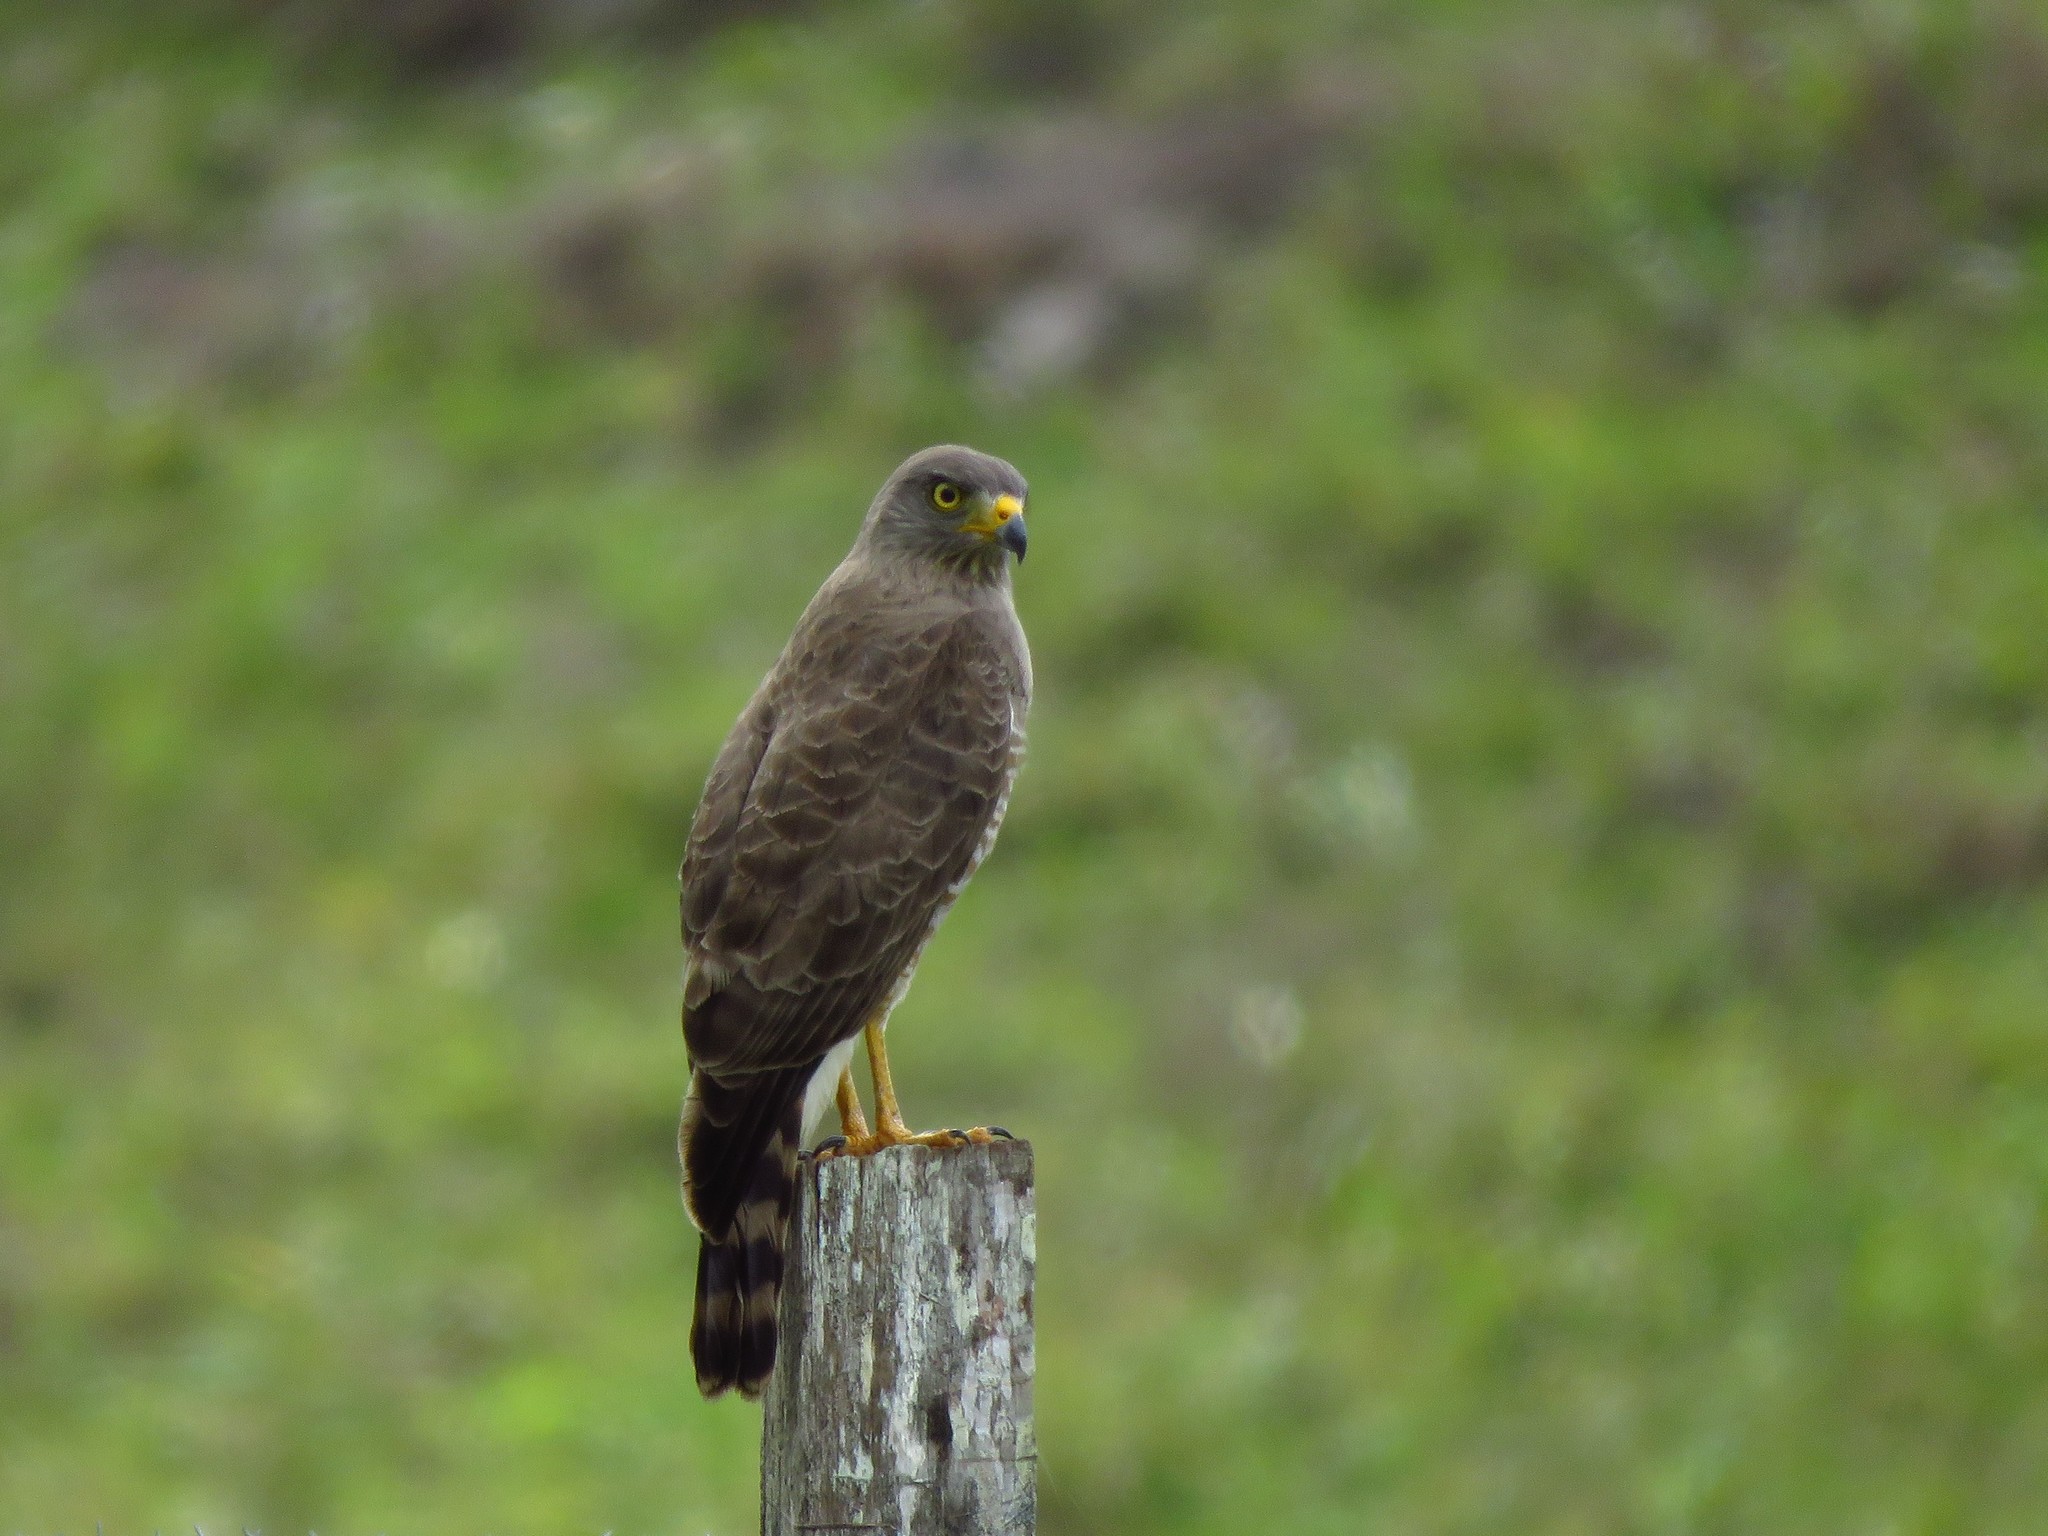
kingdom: Animalia
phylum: Chordata
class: Aves
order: Accipitriformes
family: Accipitridae
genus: Rupornis
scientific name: Rupornis magnirostris
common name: Roadside hawk
